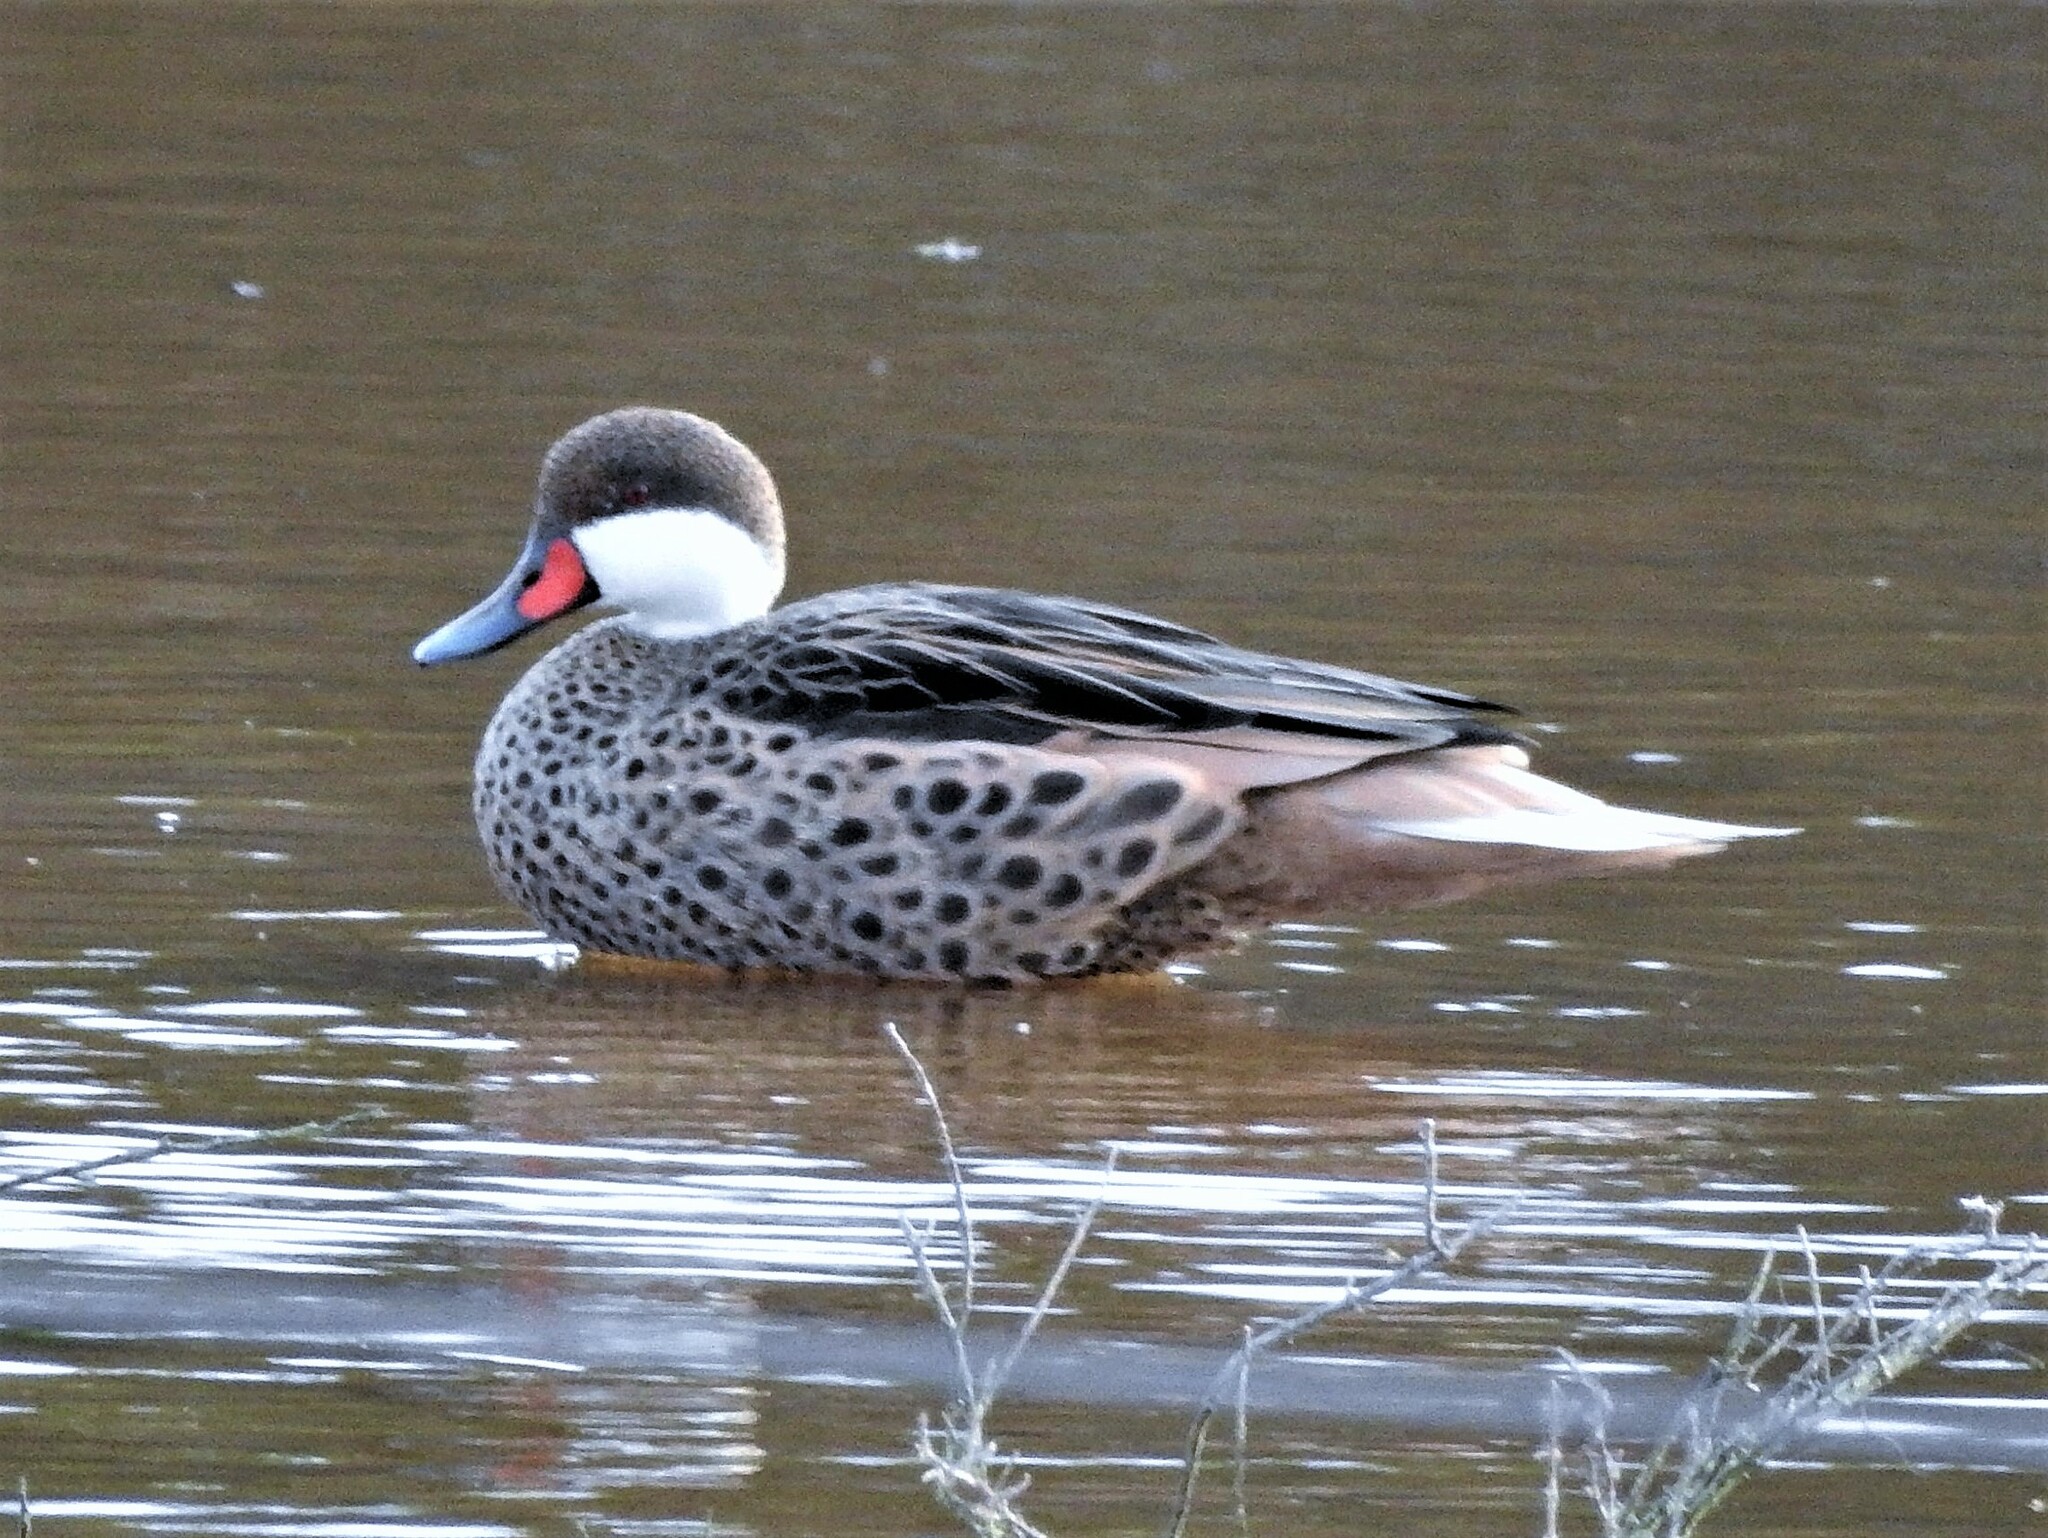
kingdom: Animalia
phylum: Chordata
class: Aves
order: Anseriformes
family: Anatidae
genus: Anas
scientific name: Anas bahamensis
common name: White-cheeked pintail
